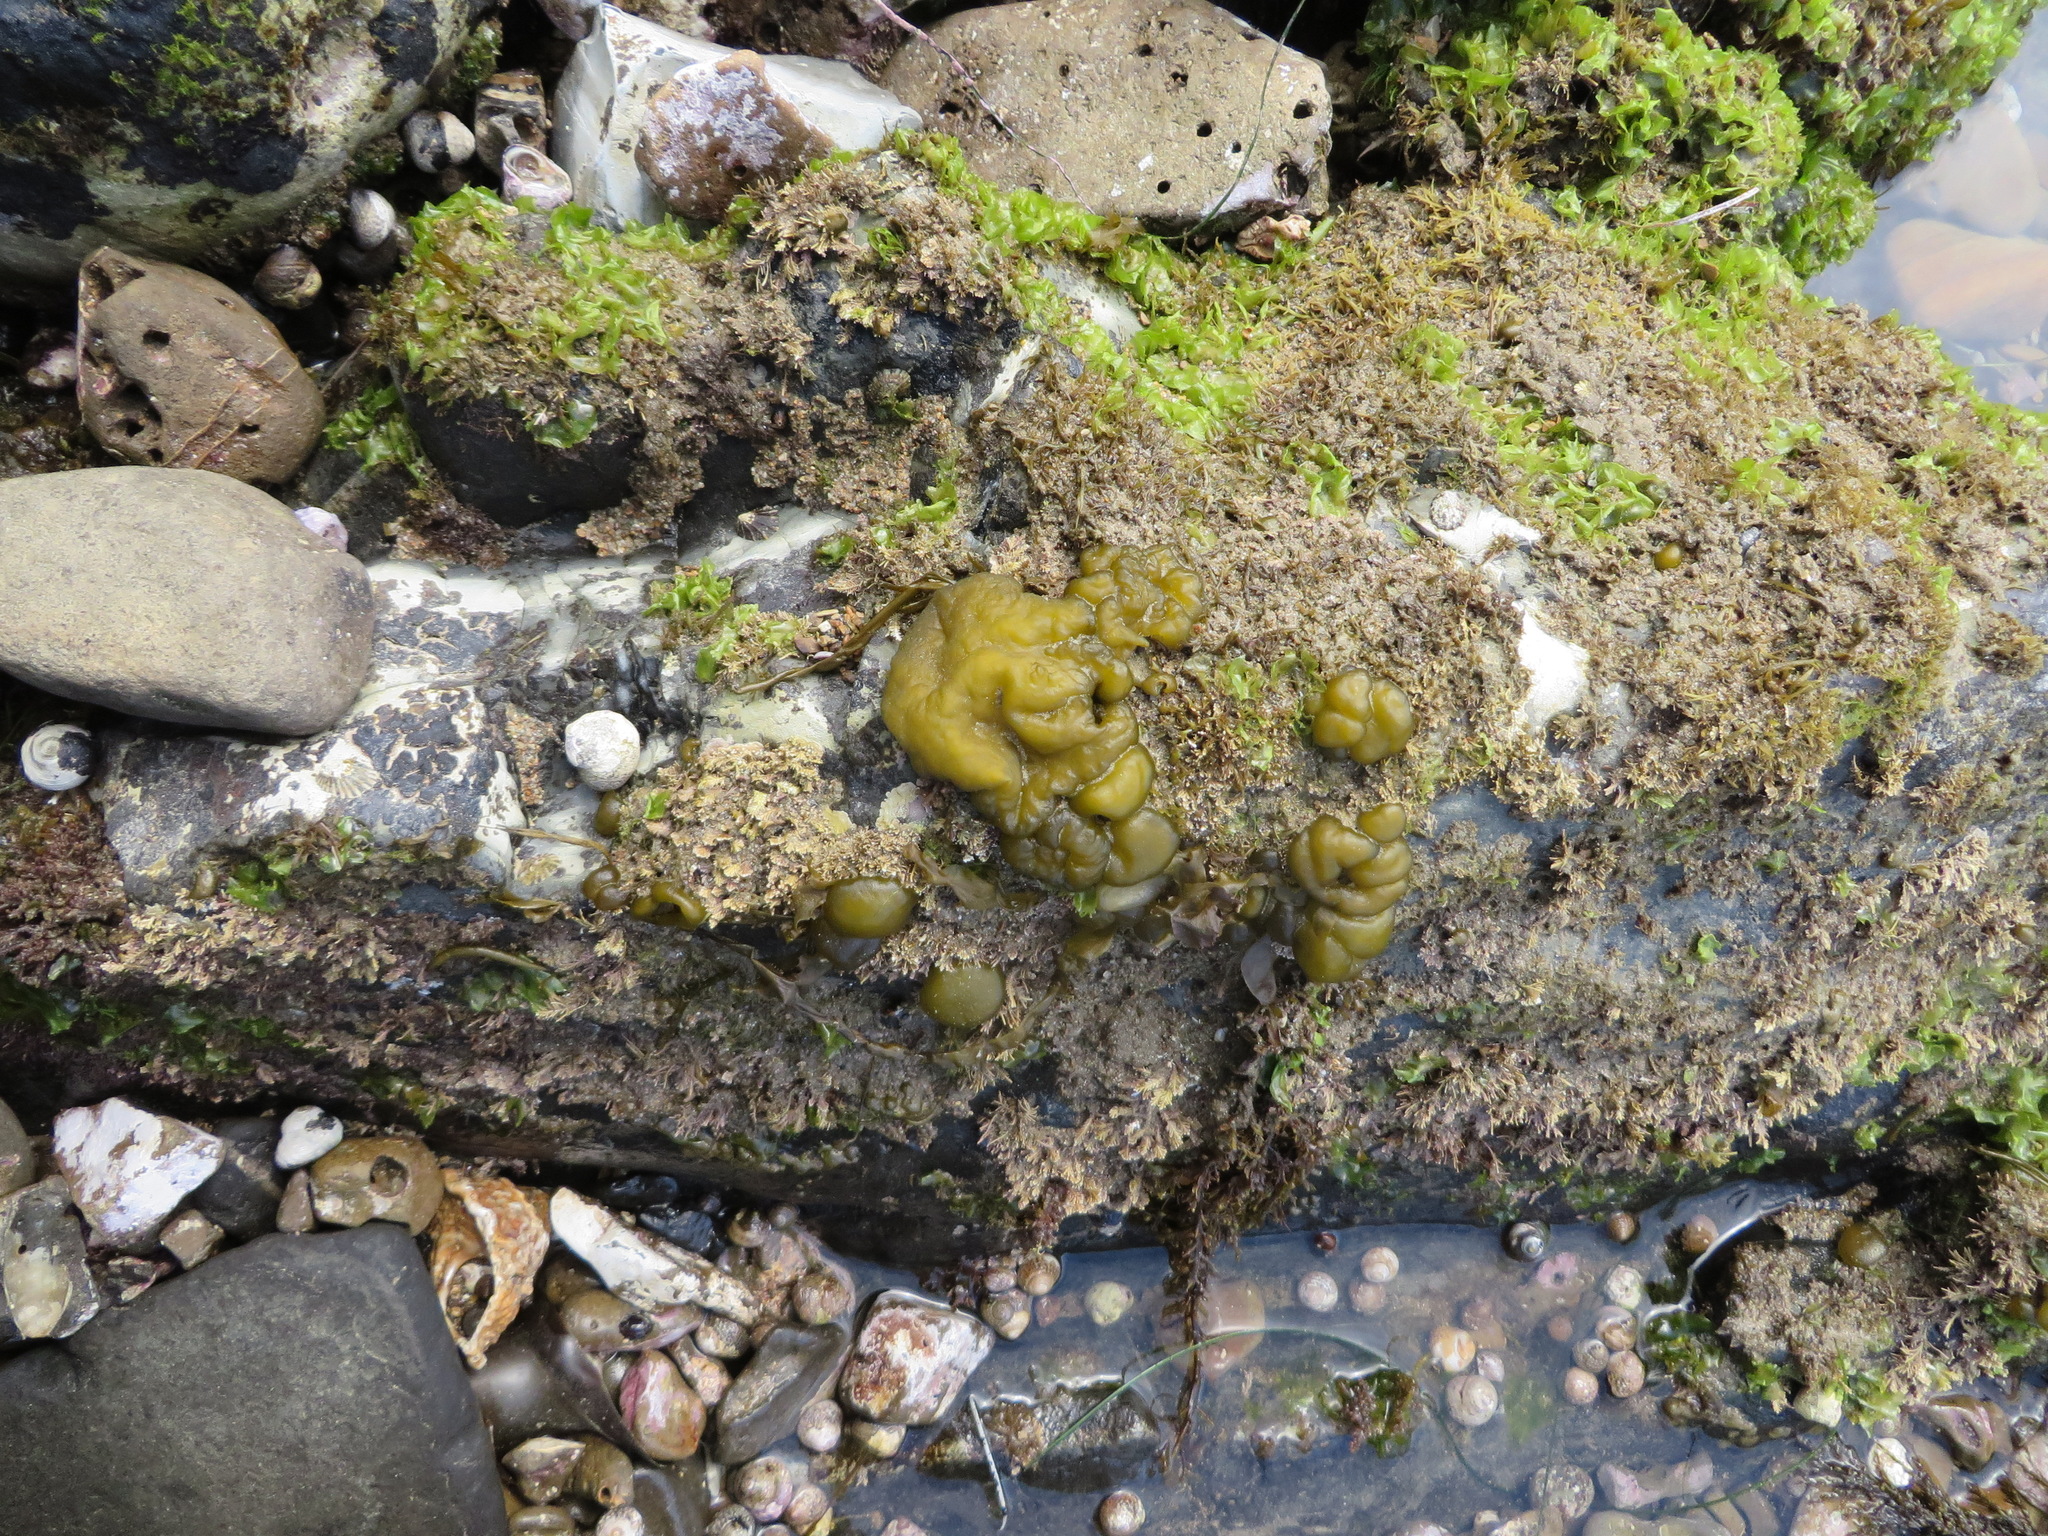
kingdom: Chromista
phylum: Ochrophyta
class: Phaeophyceae
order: Scytosiphonales
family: Scytosiphonaceae
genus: Colpomenia
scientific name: Colpomenia sinuosa
